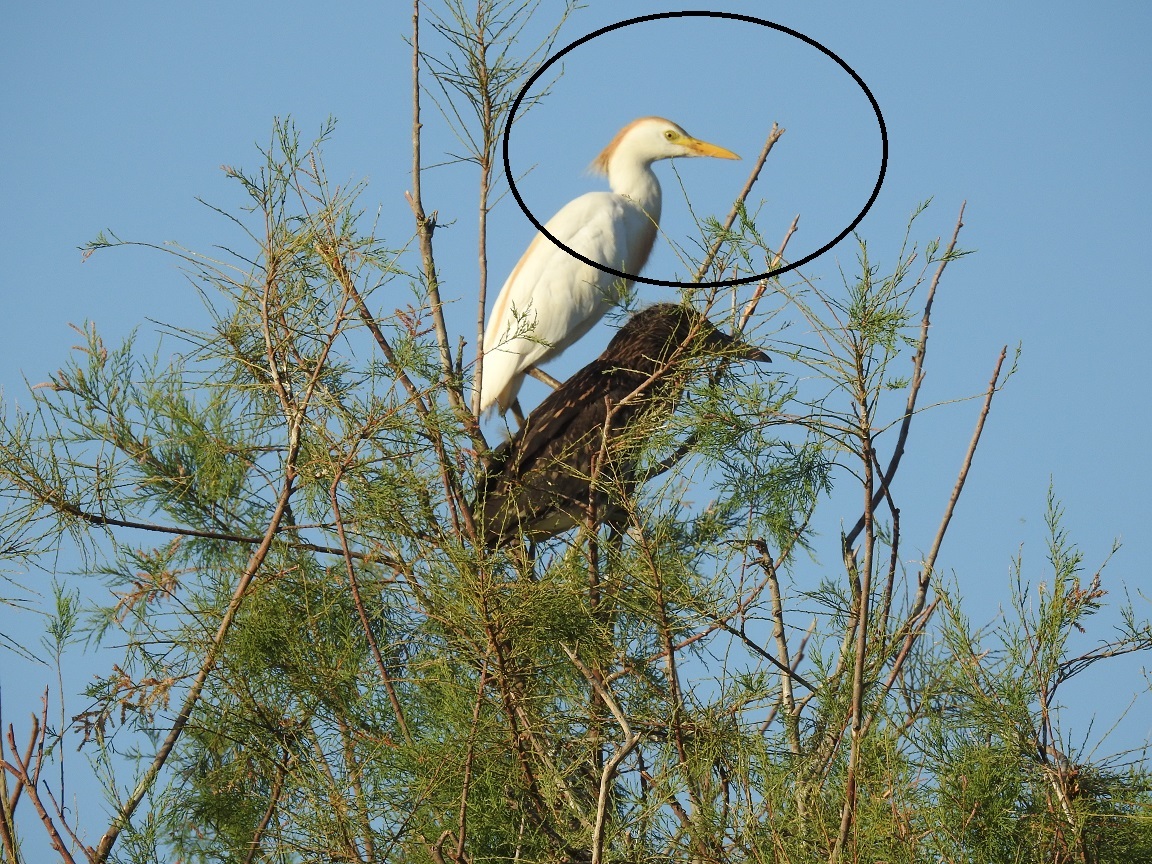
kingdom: Animalia
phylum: Chordata
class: Aves
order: Pelecaniformes
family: Ardeidae
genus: Bubulcus
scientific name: Bubulcus ibis
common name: Cattle egret
